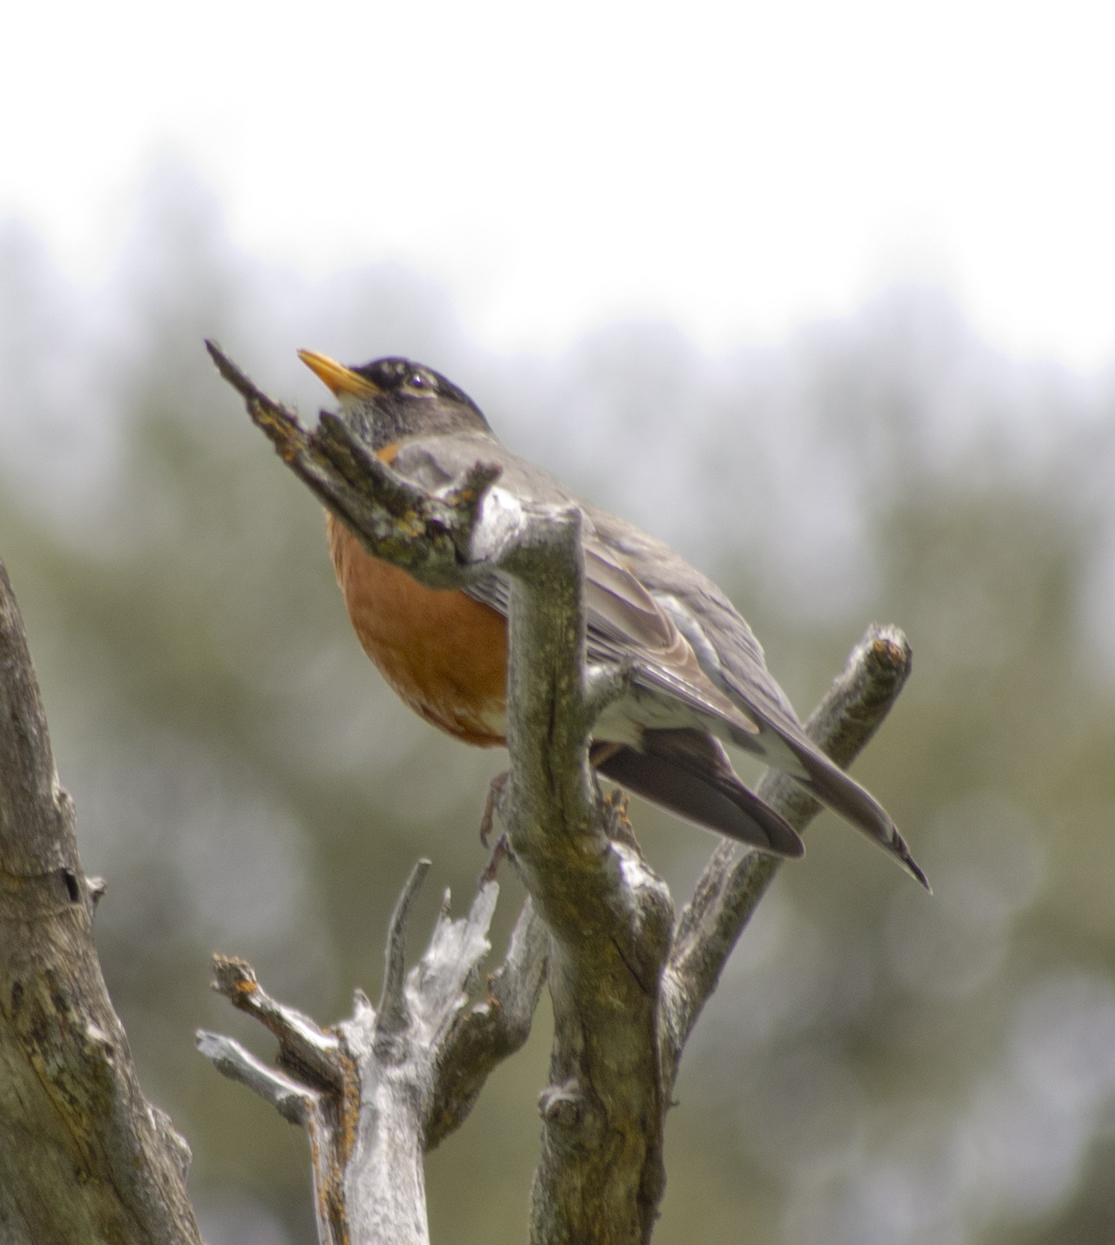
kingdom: Animalia
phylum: Chordata
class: Aves
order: Passeriformes
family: Turdidae
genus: Turdus
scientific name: Turdus migratorius
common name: American robin
